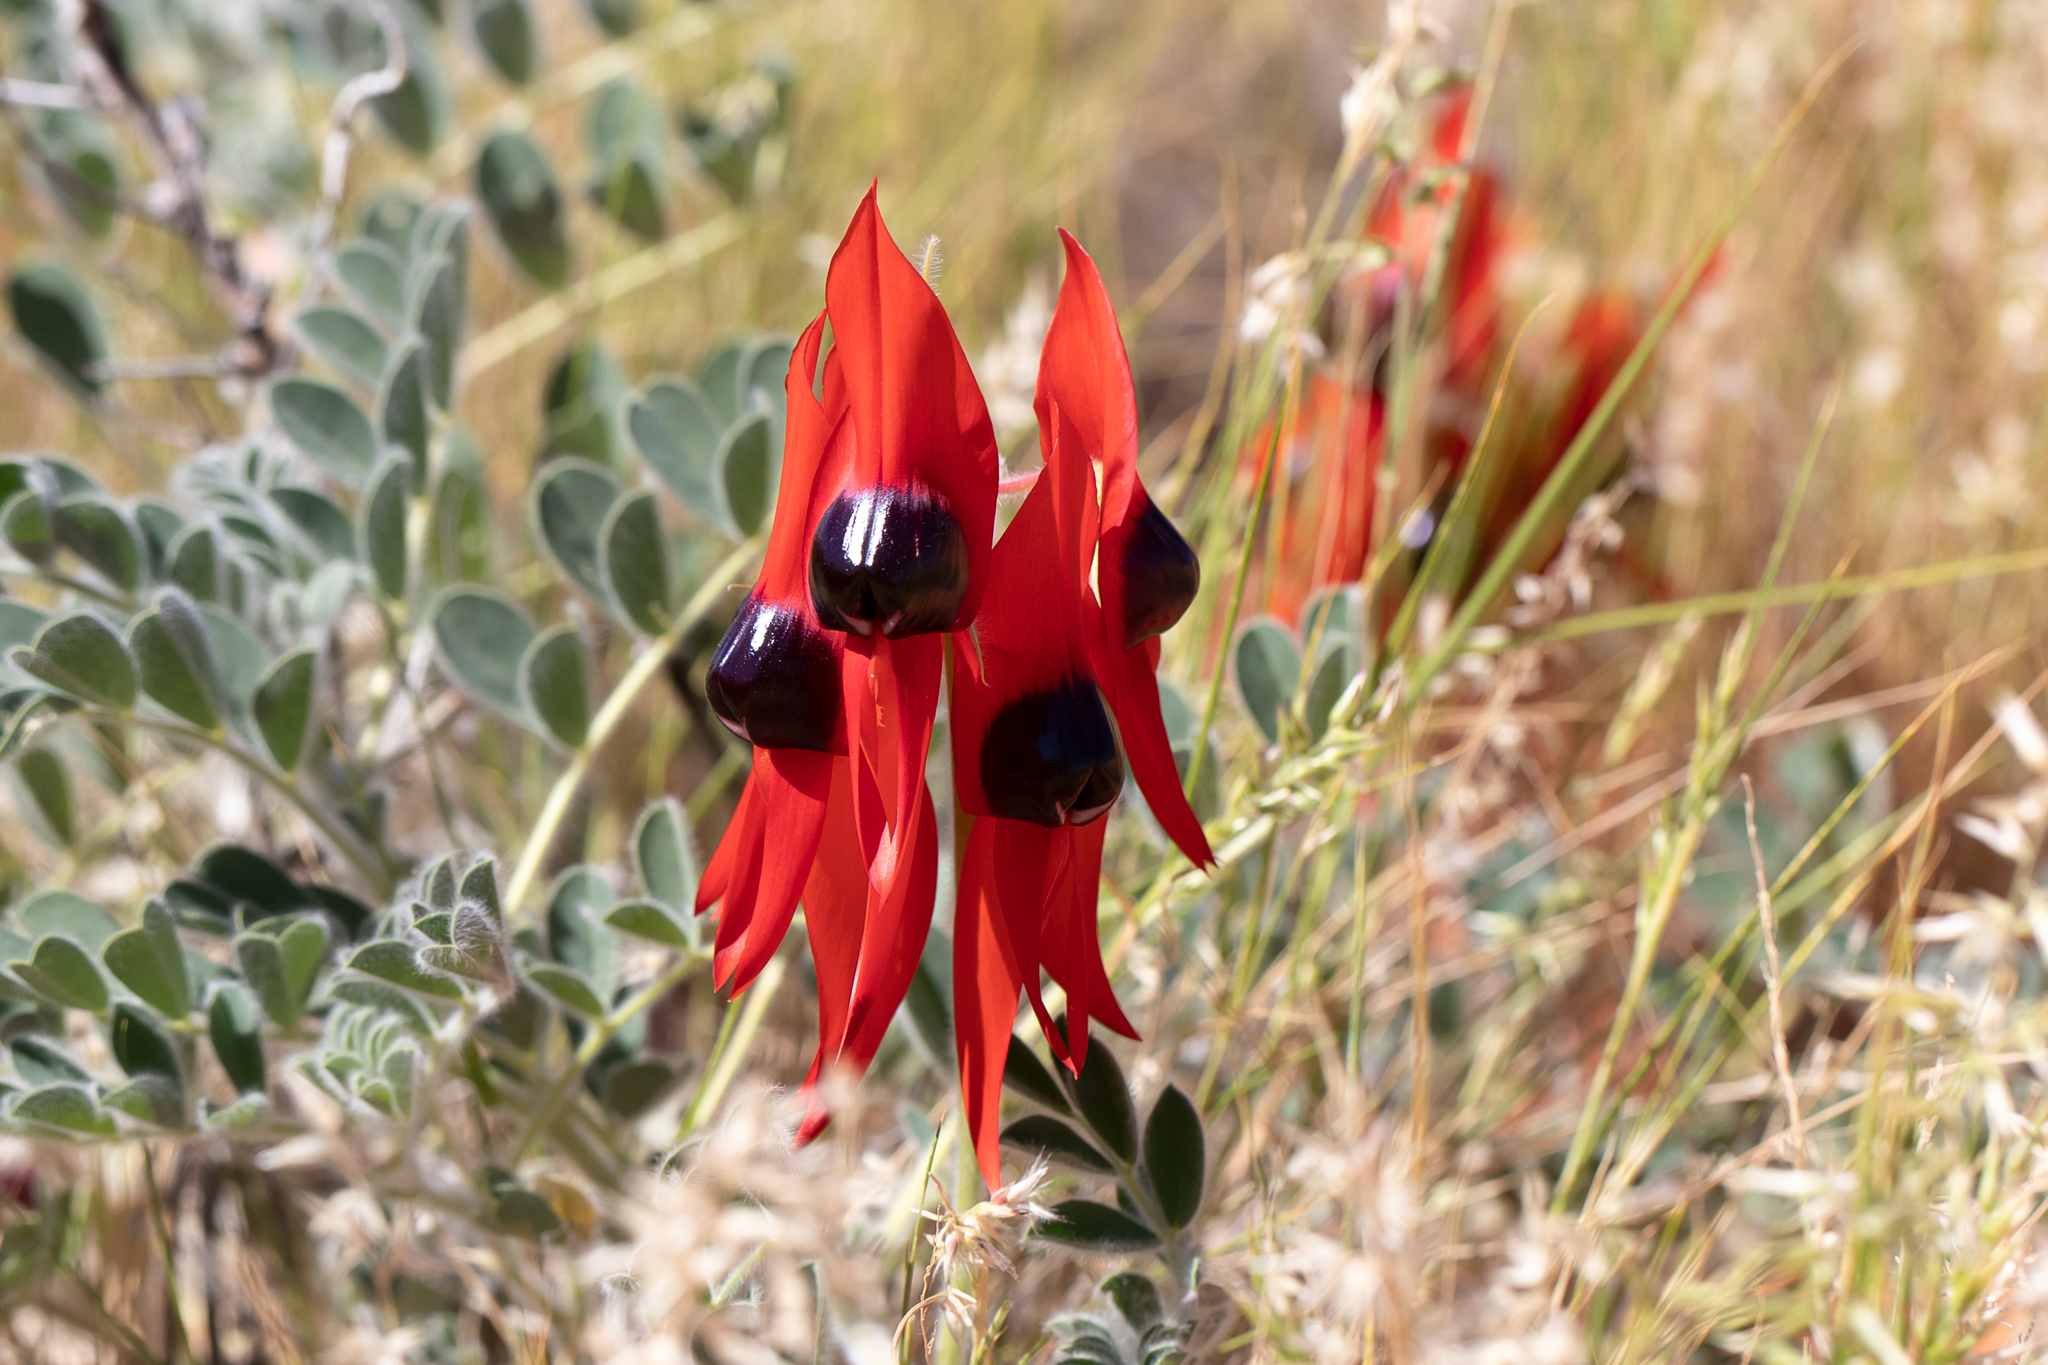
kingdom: Plantae
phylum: Tracheophyta
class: Magnoliopsida
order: Fabales
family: Fabaceae
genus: Swainsona
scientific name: Swainsona formosa
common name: Sturt's desert-pea
